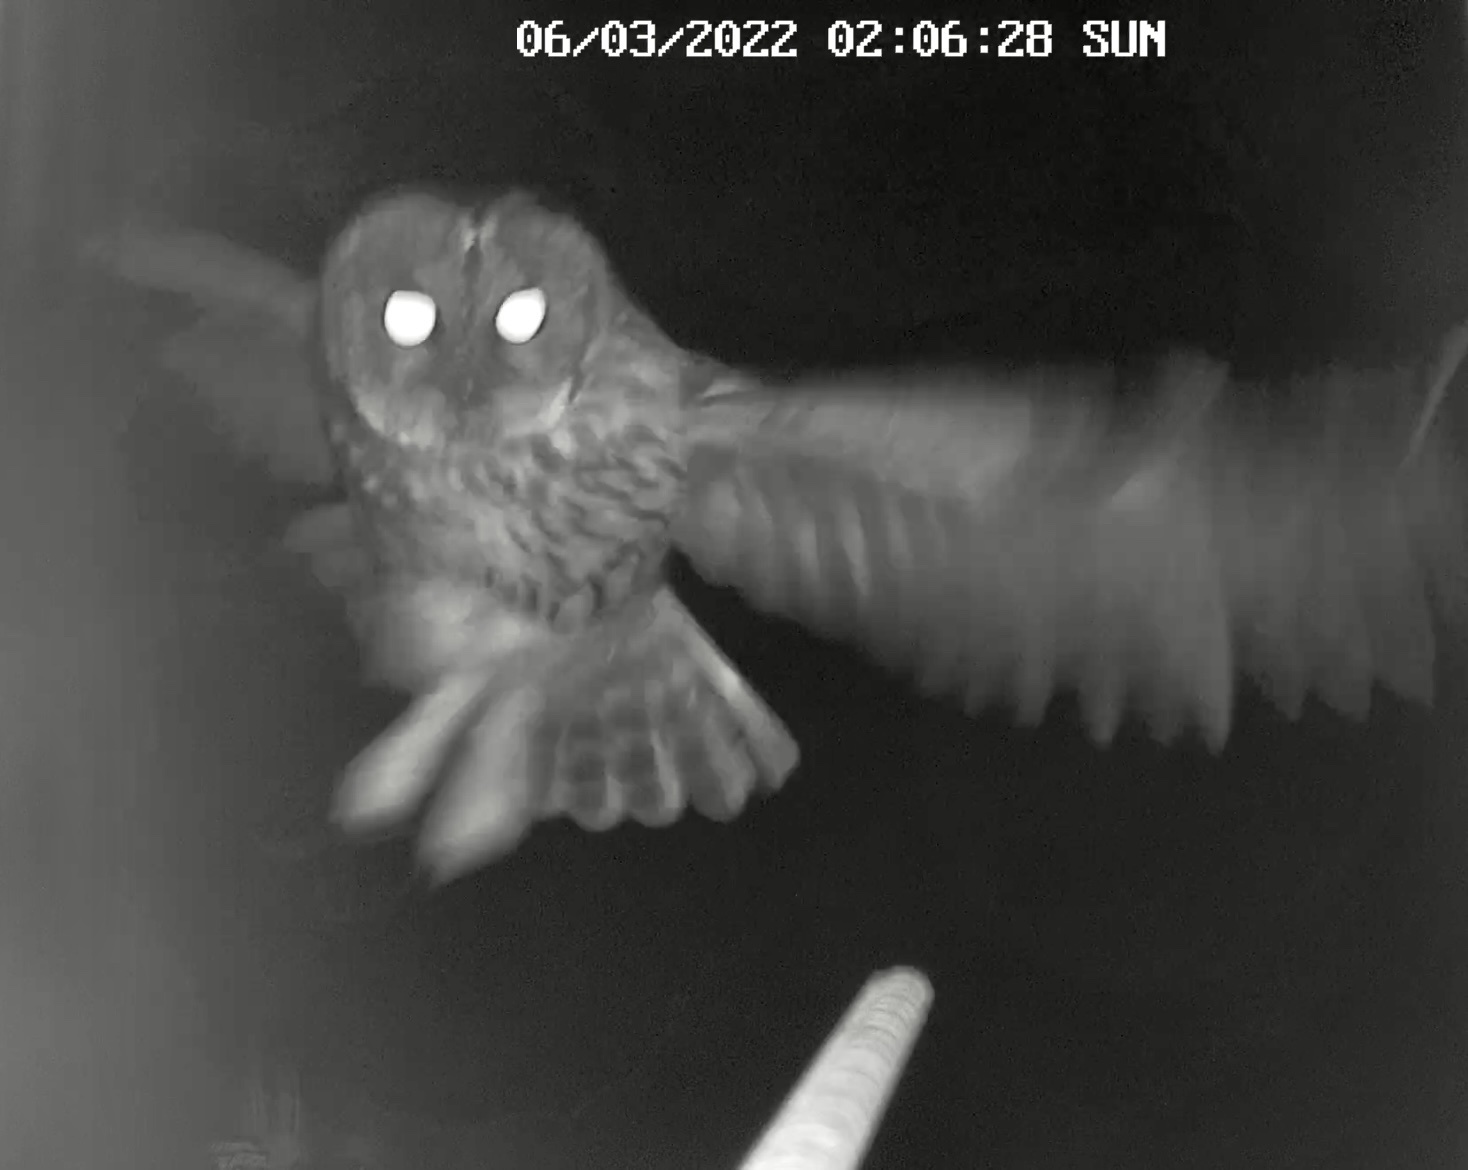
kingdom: Animalia
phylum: Chordata
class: Aves
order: Strigiformes
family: Strigidae
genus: Strix
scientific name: Strix aluco
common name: Tawny owl
